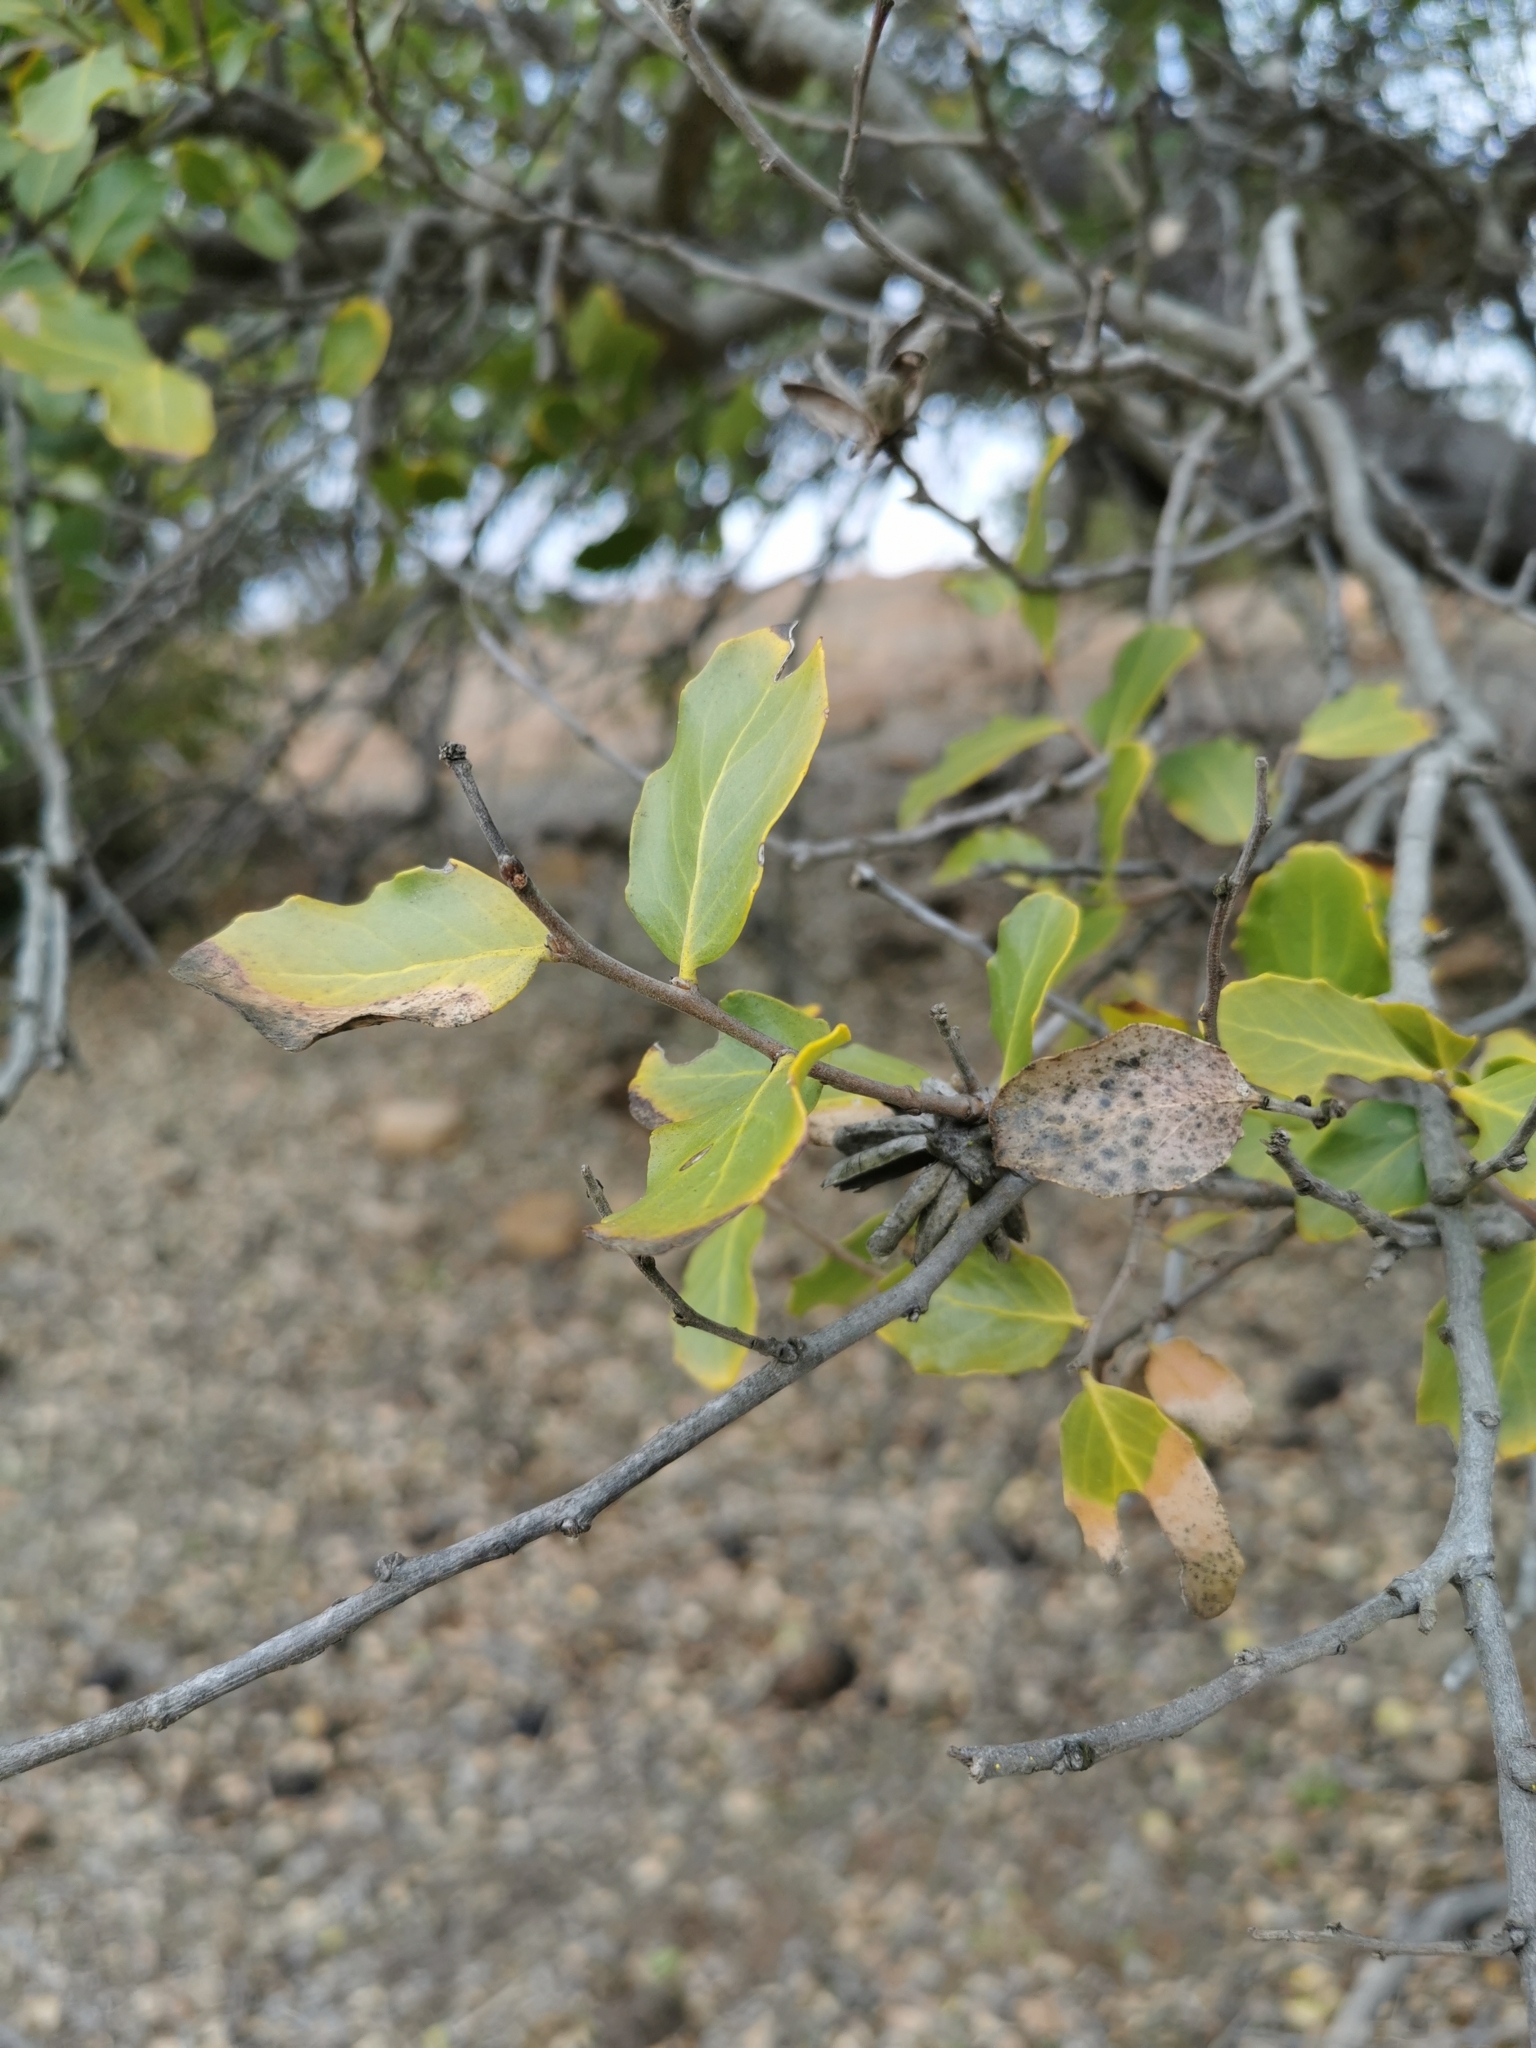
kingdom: Plantae
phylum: Tracheophyta
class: Magnoliopsida
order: Fabales
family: Quillajaceae
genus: Quillaja
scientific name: Quillaja saponaria
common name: Murillo's-bark
